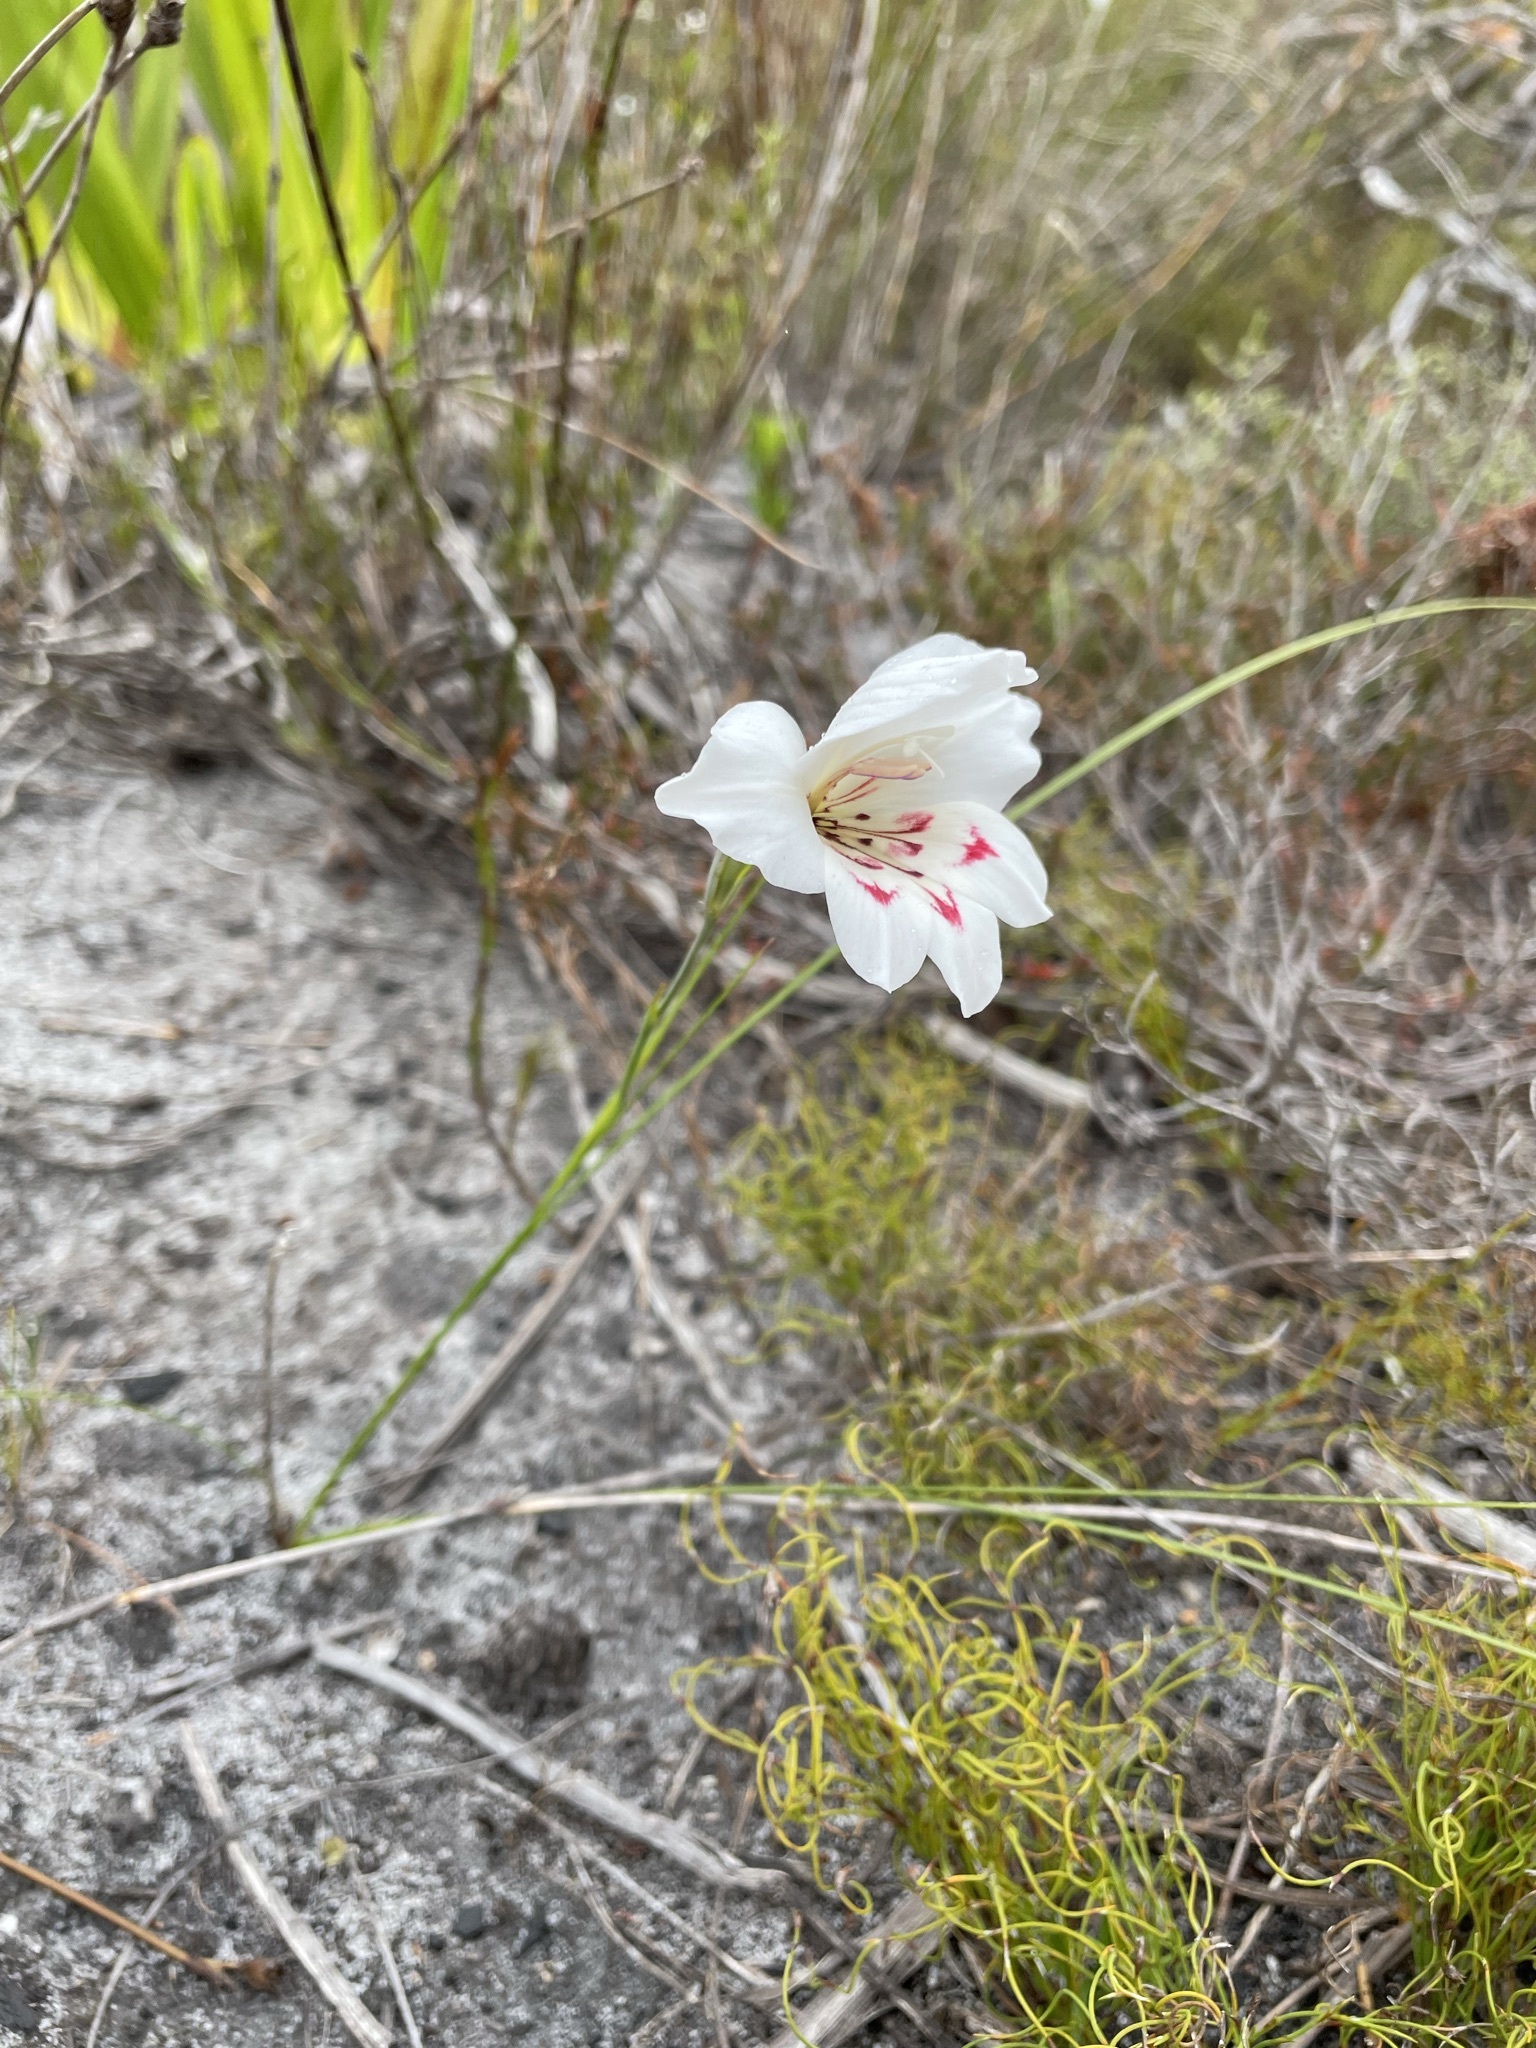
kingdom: Plantae
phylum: Tracheophyta
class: Liliopsida
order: Asparagales
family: Iridaceae
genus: Gladiolus
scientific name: Gladiolus debilis
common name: Painted-lady
